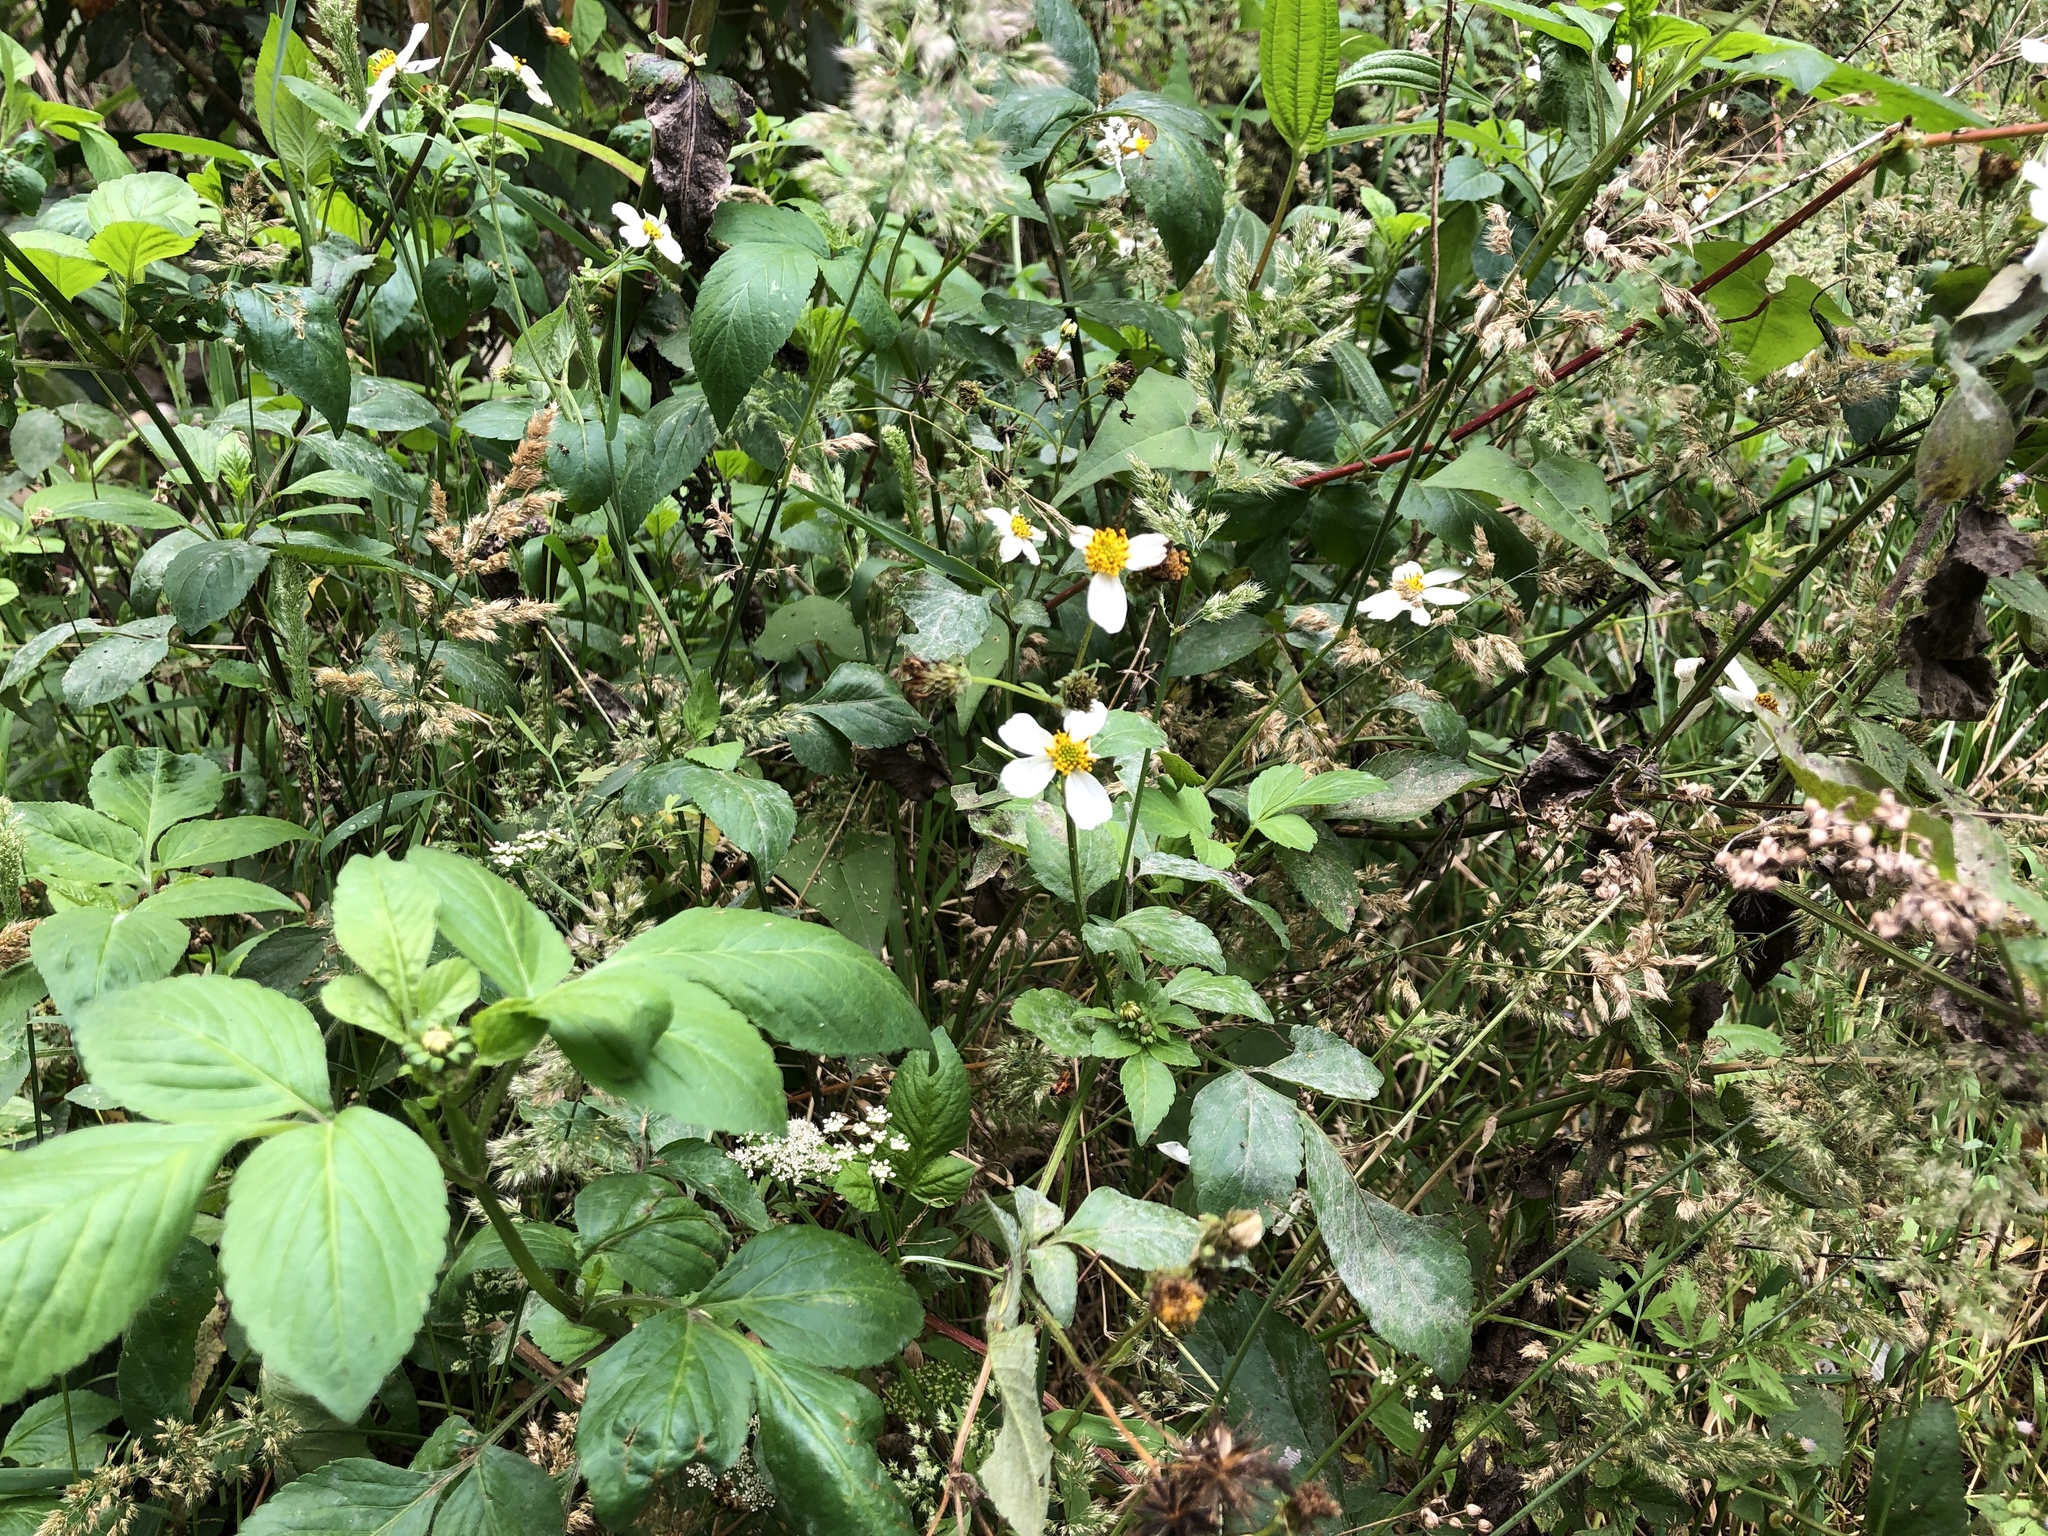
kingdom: Plantae
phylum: Tracheophyta
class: Magnoliopsida
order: Asterales
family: Asteraceae
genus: Bidens
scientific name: Bidens alba
